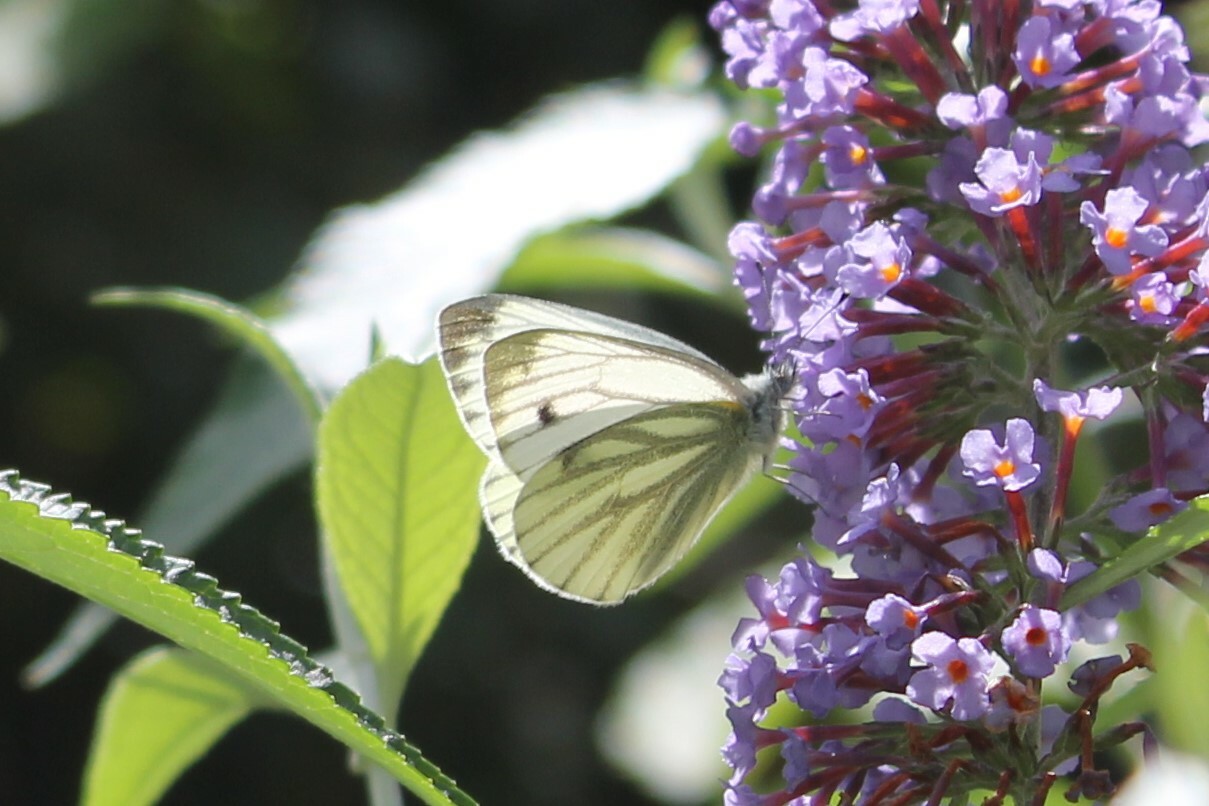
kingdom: Animalia
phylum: Arthropoda
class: Insecta
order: Lepidoptera
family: Pieridae
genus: Pieris
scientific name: Pieris napi
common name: Green-veined white
